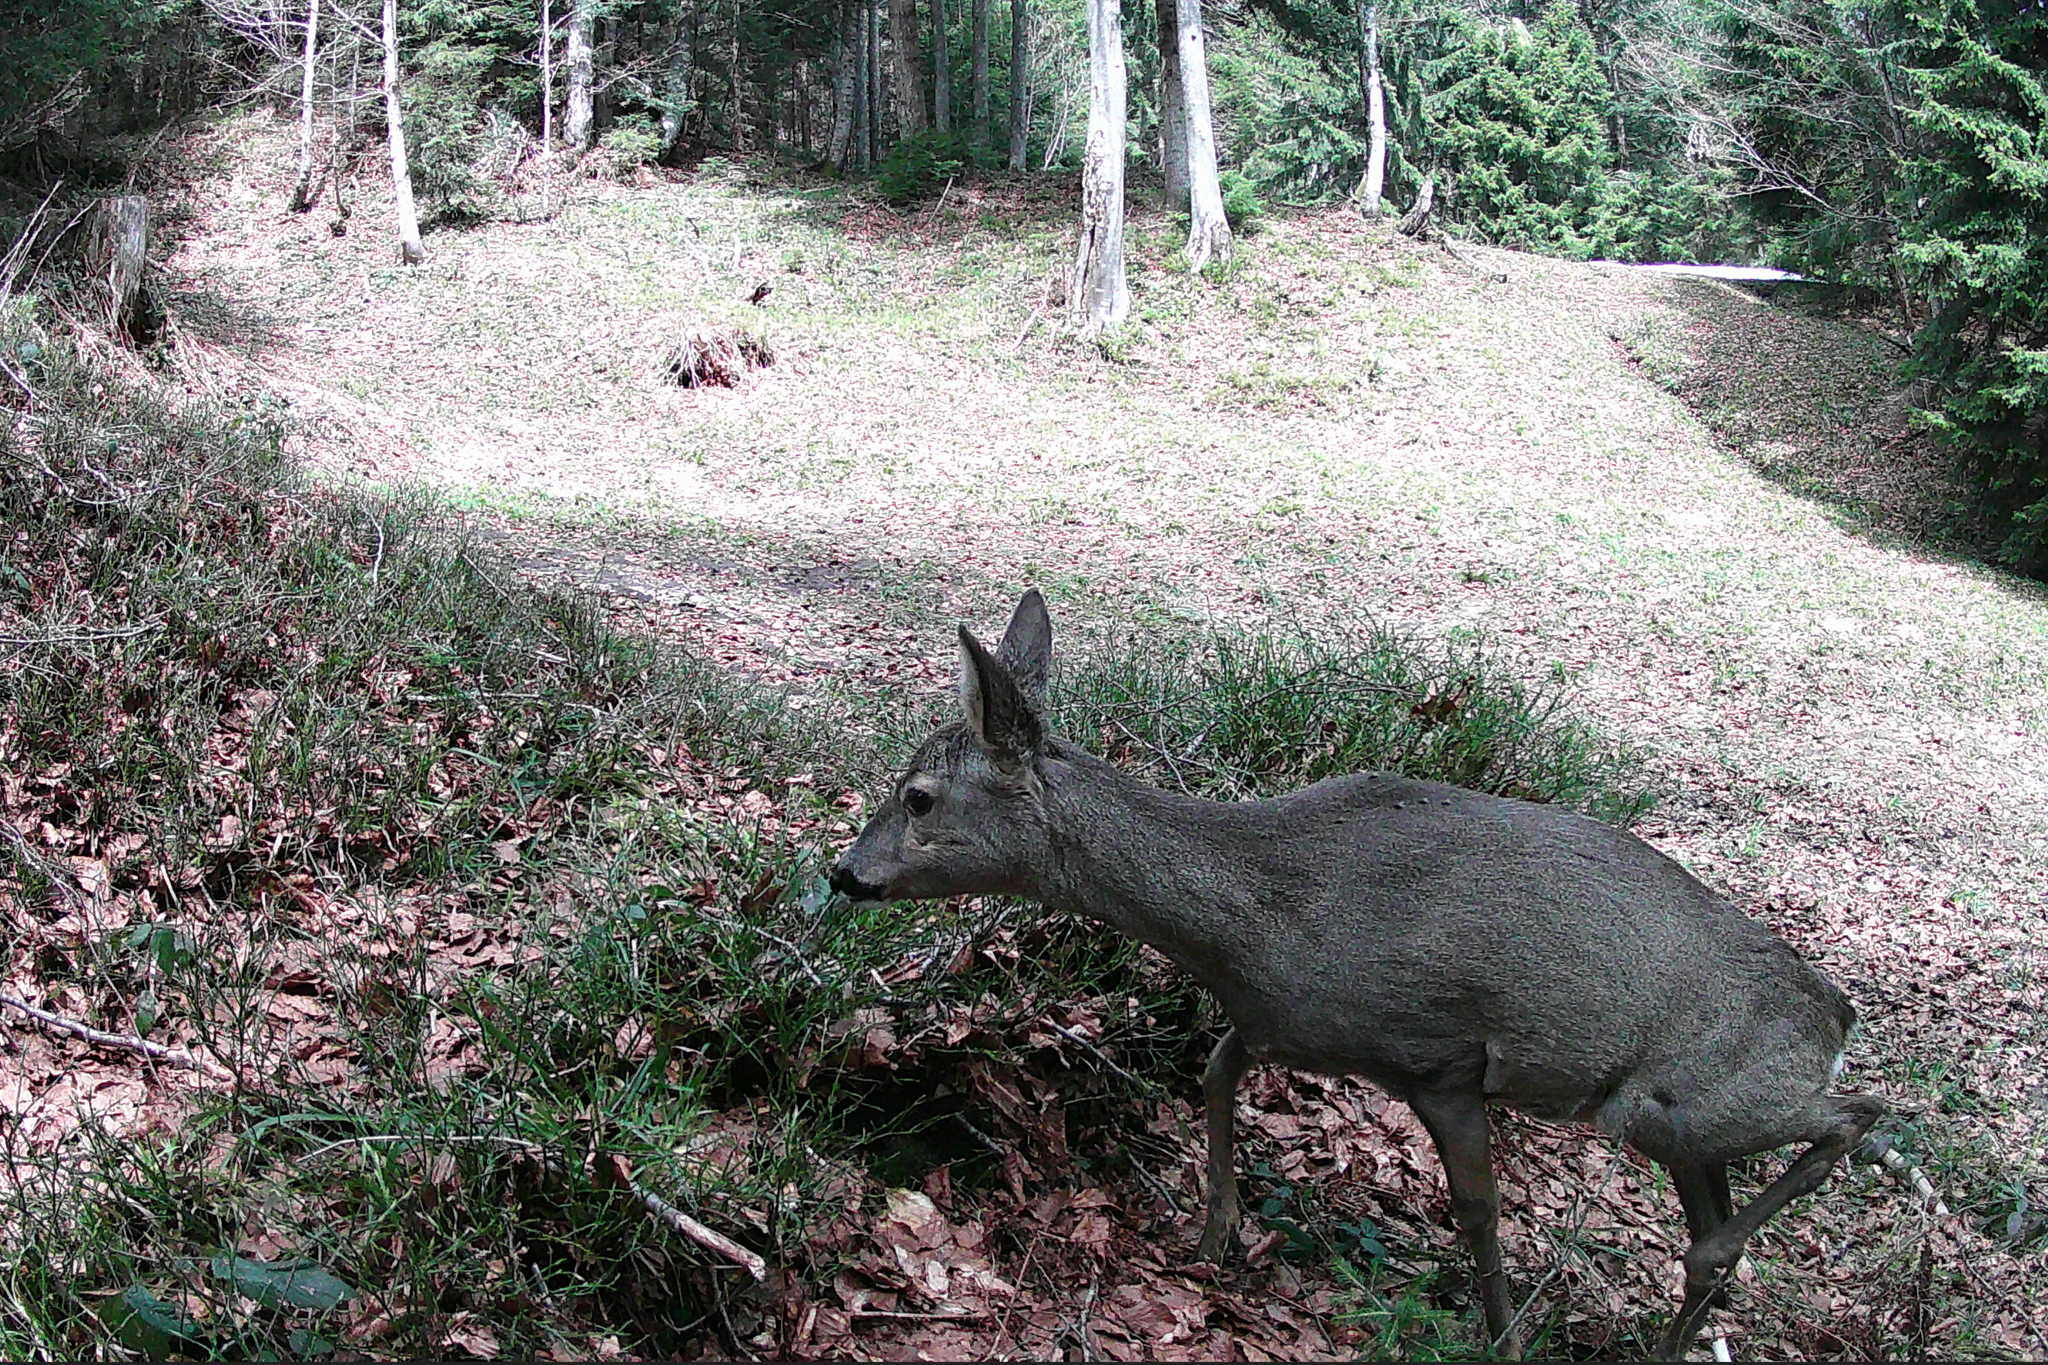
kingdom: Animalia
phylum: Chordata
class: Mammalia
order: Artiodactyla
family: Cervidae
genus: Capreolus
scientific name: Capreolus capreolus
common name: Western roe deer
